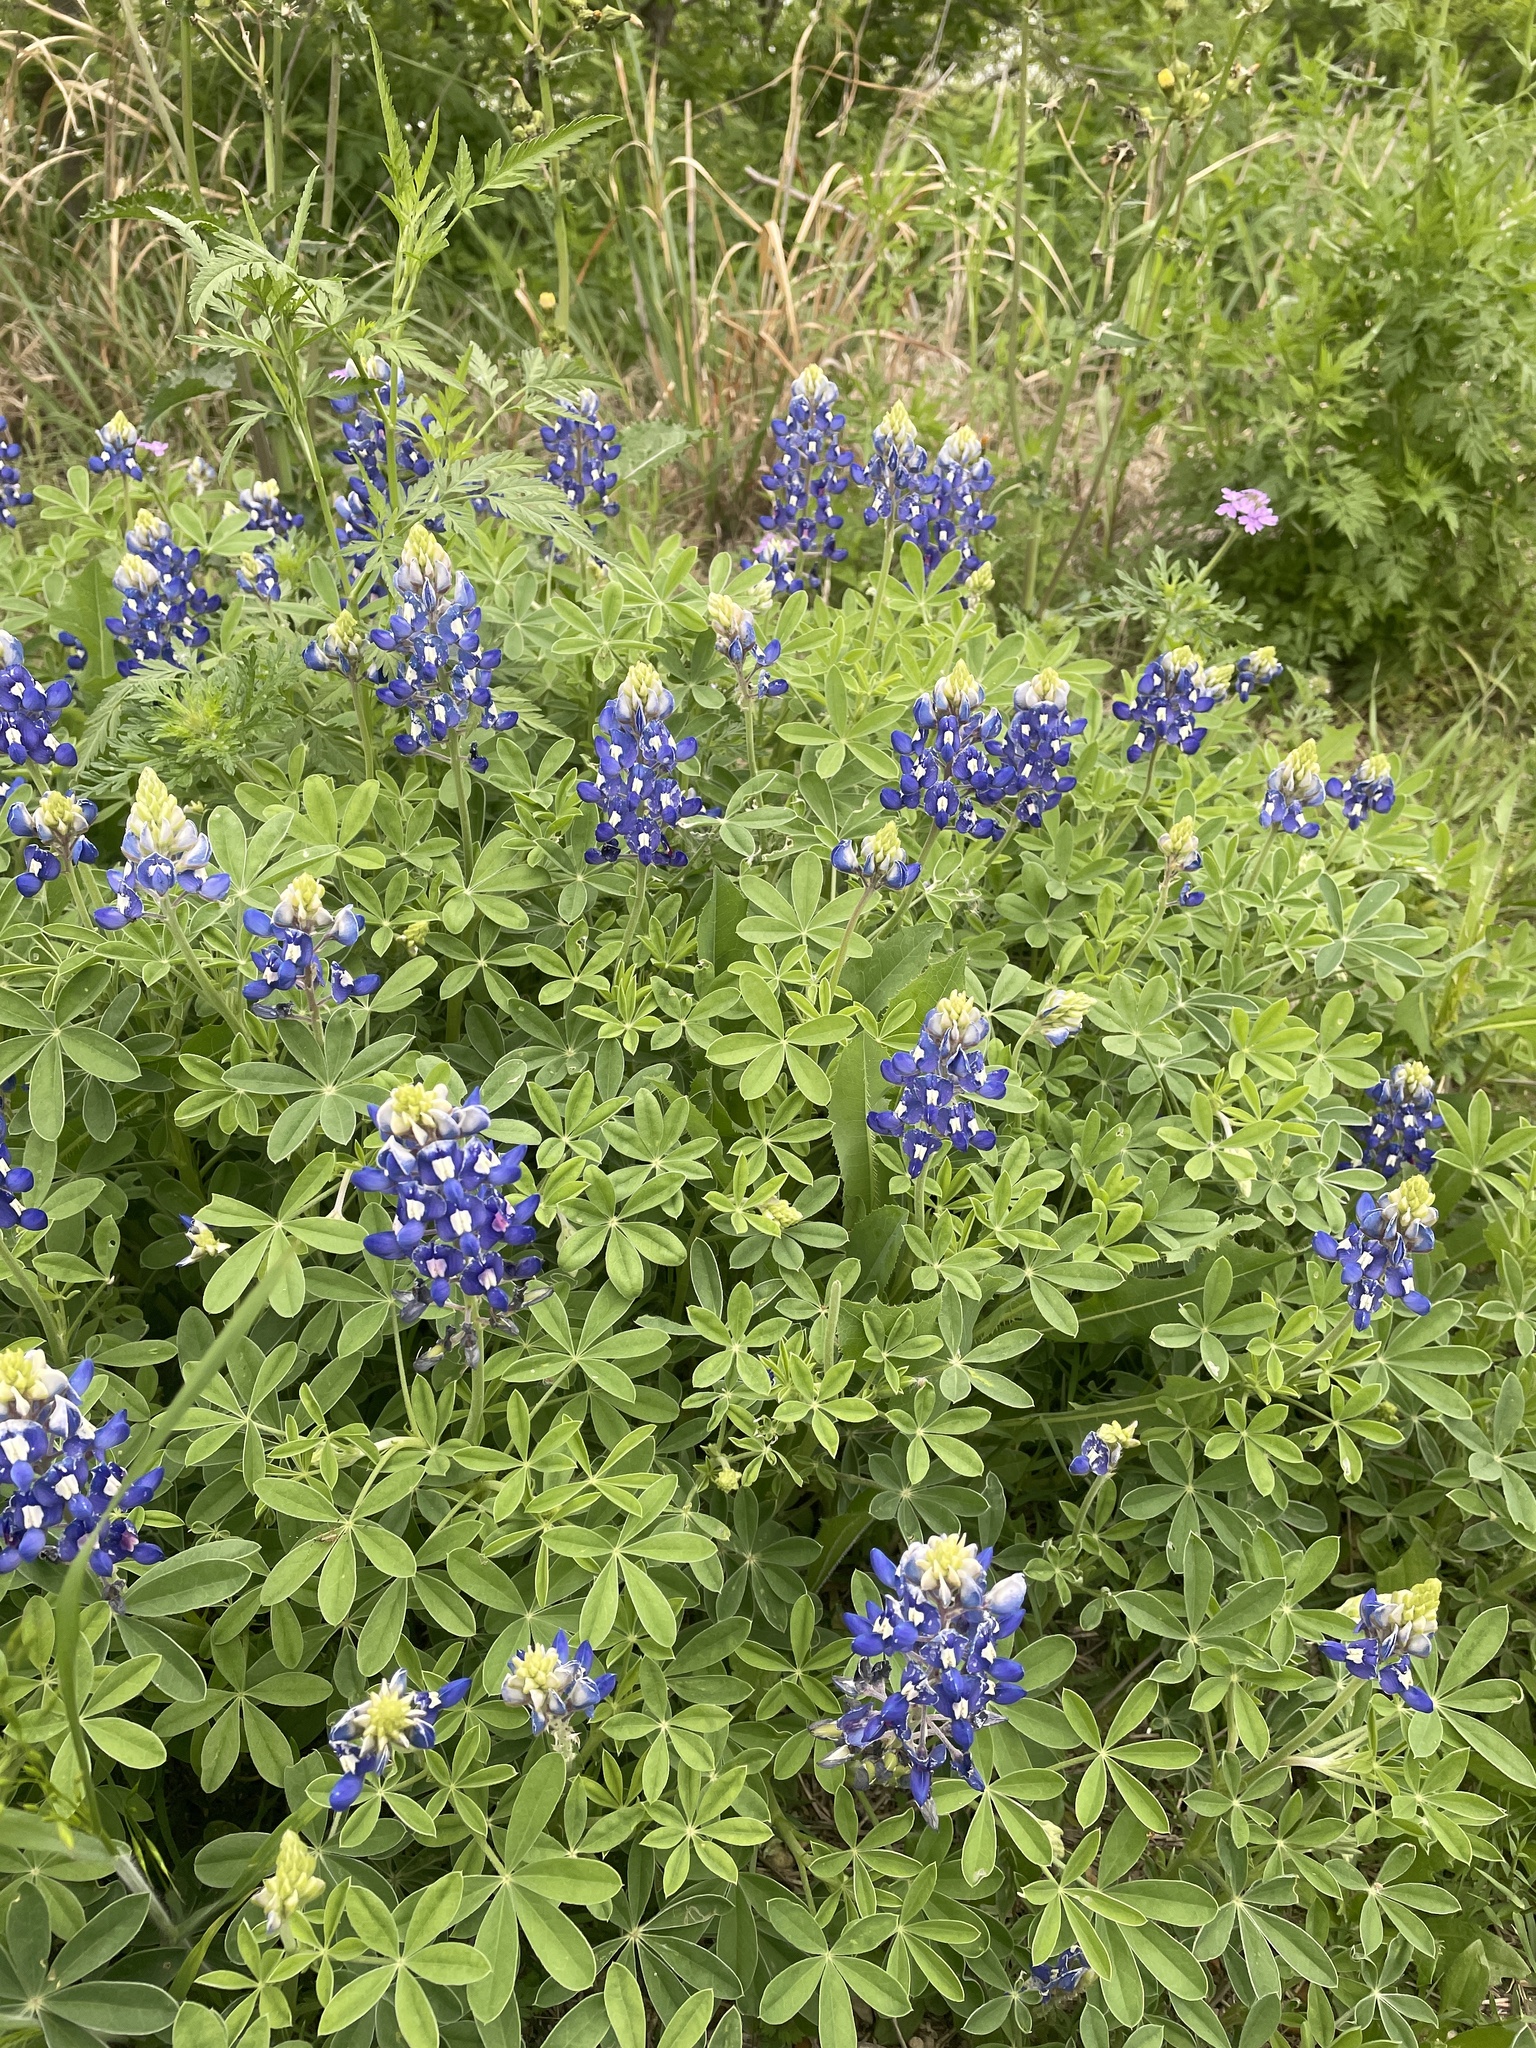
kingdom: Plantae
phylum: Tracheophyta
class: Magnoliopsida
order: Fabales
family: Fabaceae
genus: Lupinus
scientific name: Lupinus texensis
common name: Texas bluebonnet
